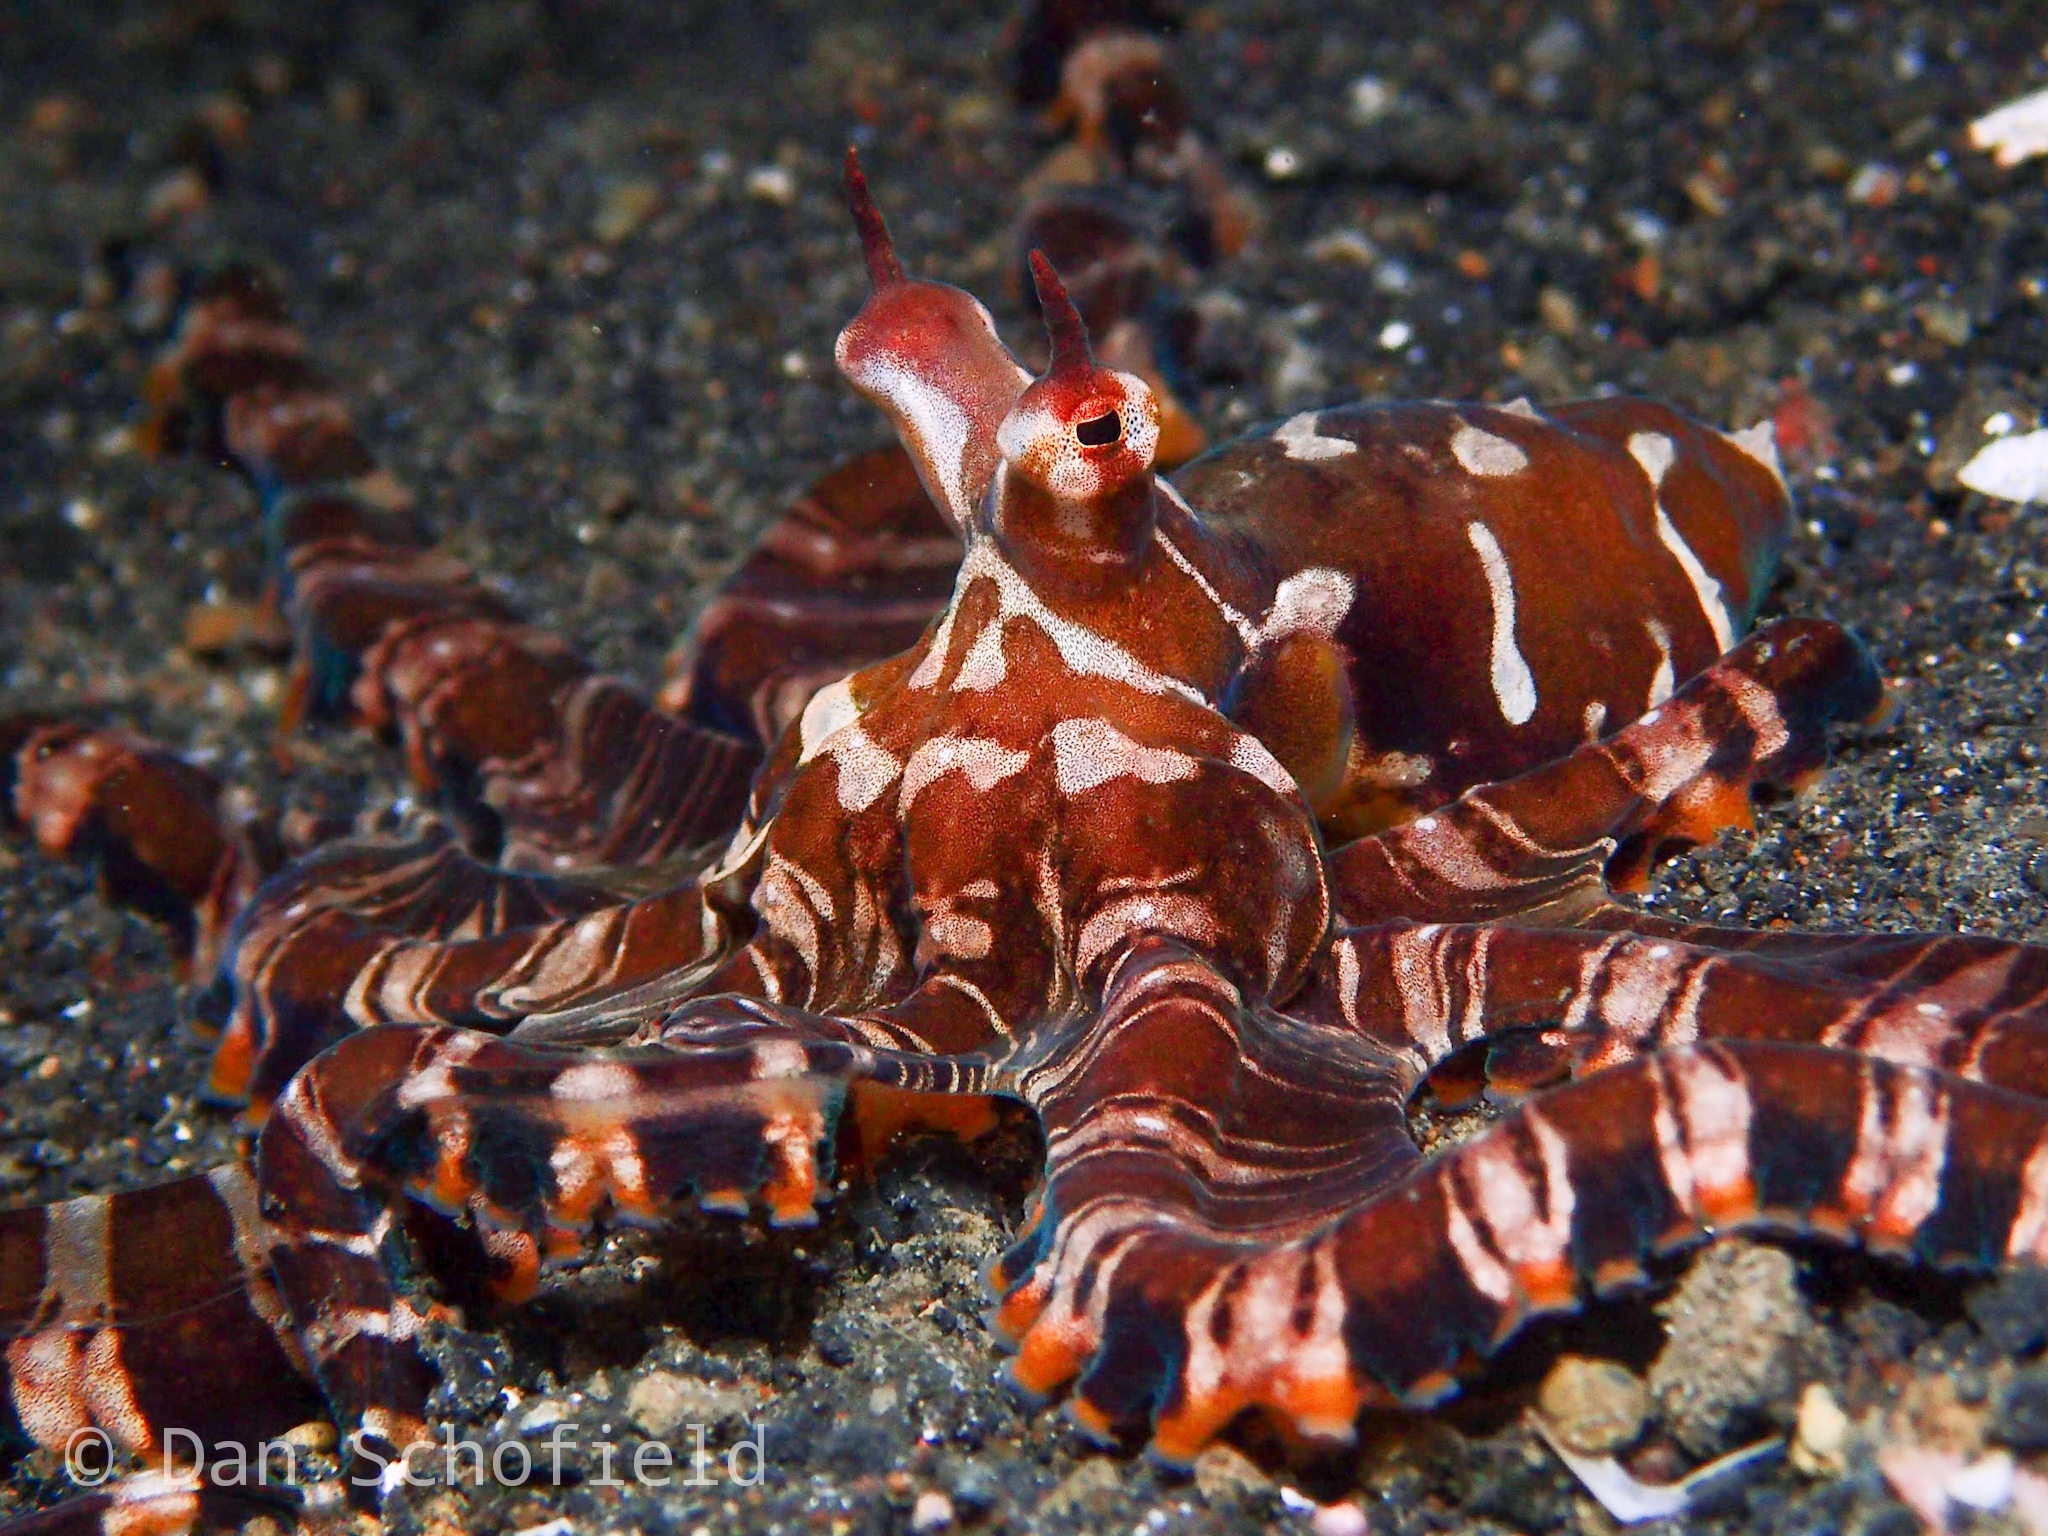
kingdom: Animalia
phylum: Mollusca
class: Cephalopoda
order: Octopoda
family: Octopodidae
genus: Wunderpus
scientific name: Wunderpus photogenicus
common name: Wunderpus
